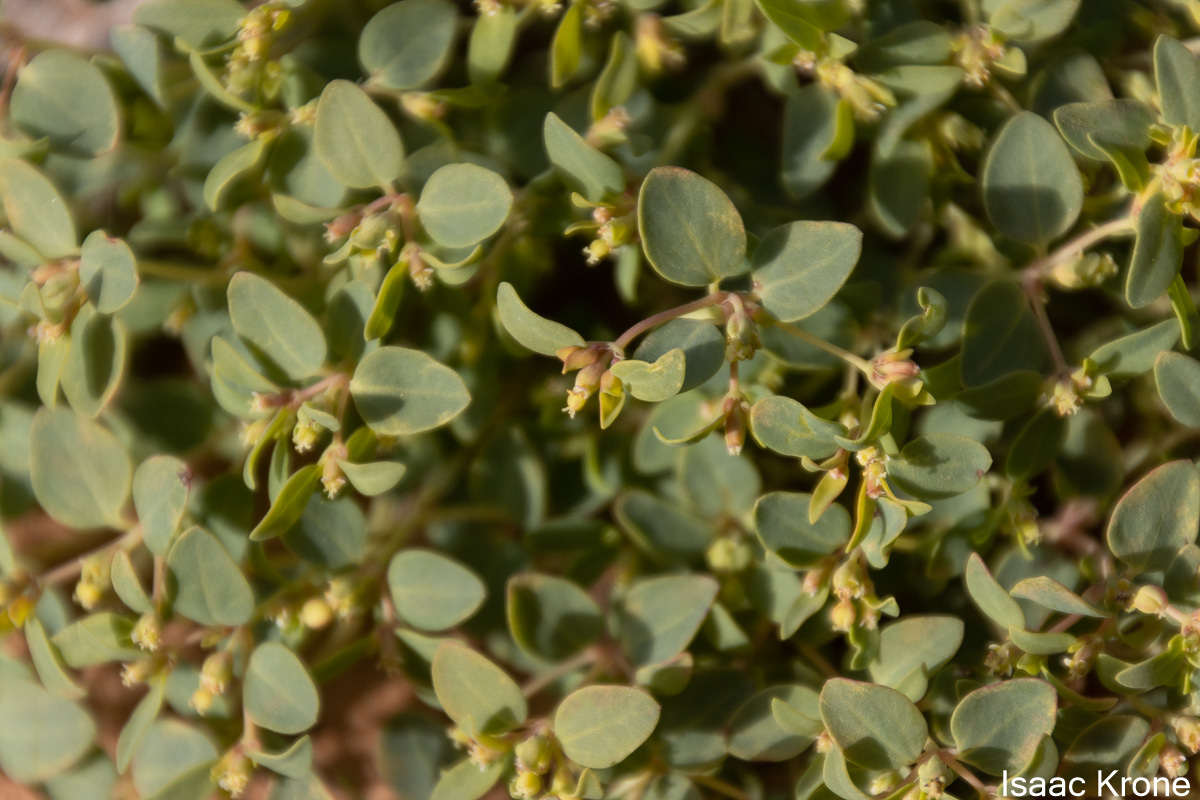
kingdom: Plantae
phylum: Tracheophyta
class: Magnoliopsida
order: Malpighiales
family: Euphorbiaceae
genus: Euphorbia
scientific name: Euphorbia fendleri
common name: Fendler's euphorbia
